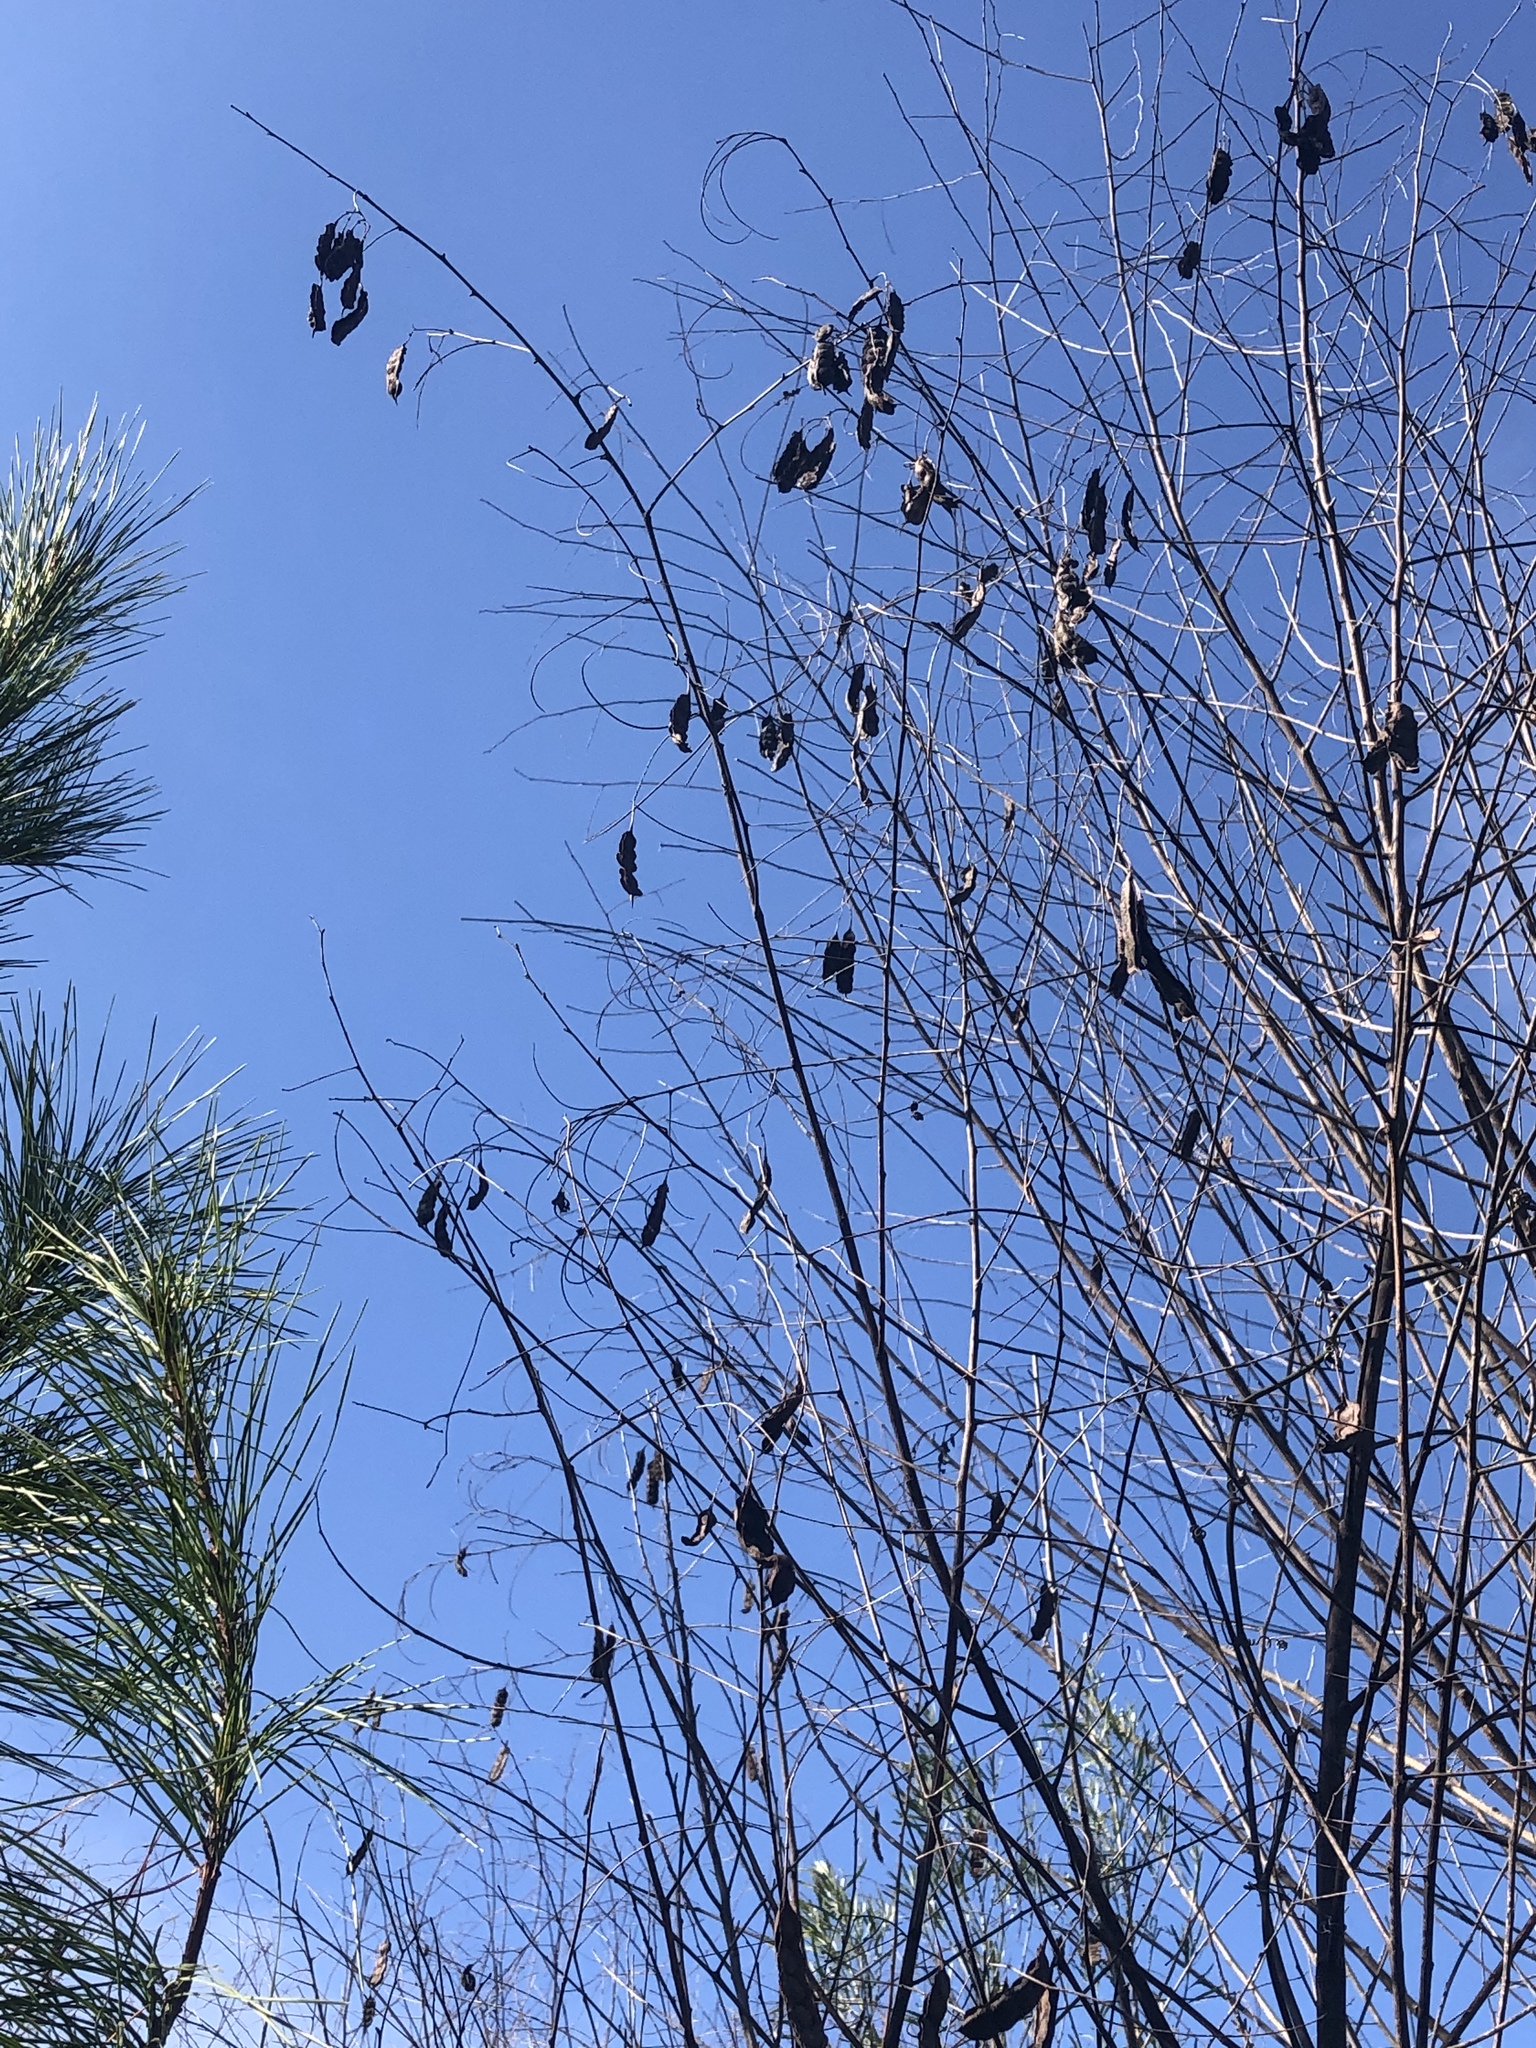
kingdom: Plantae
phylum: Tracheophyta
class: Magnoliopsida
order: Fabales
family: Fabaceae
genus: Sesbania
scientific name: Sesbania drummondii
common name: Poison-bean
